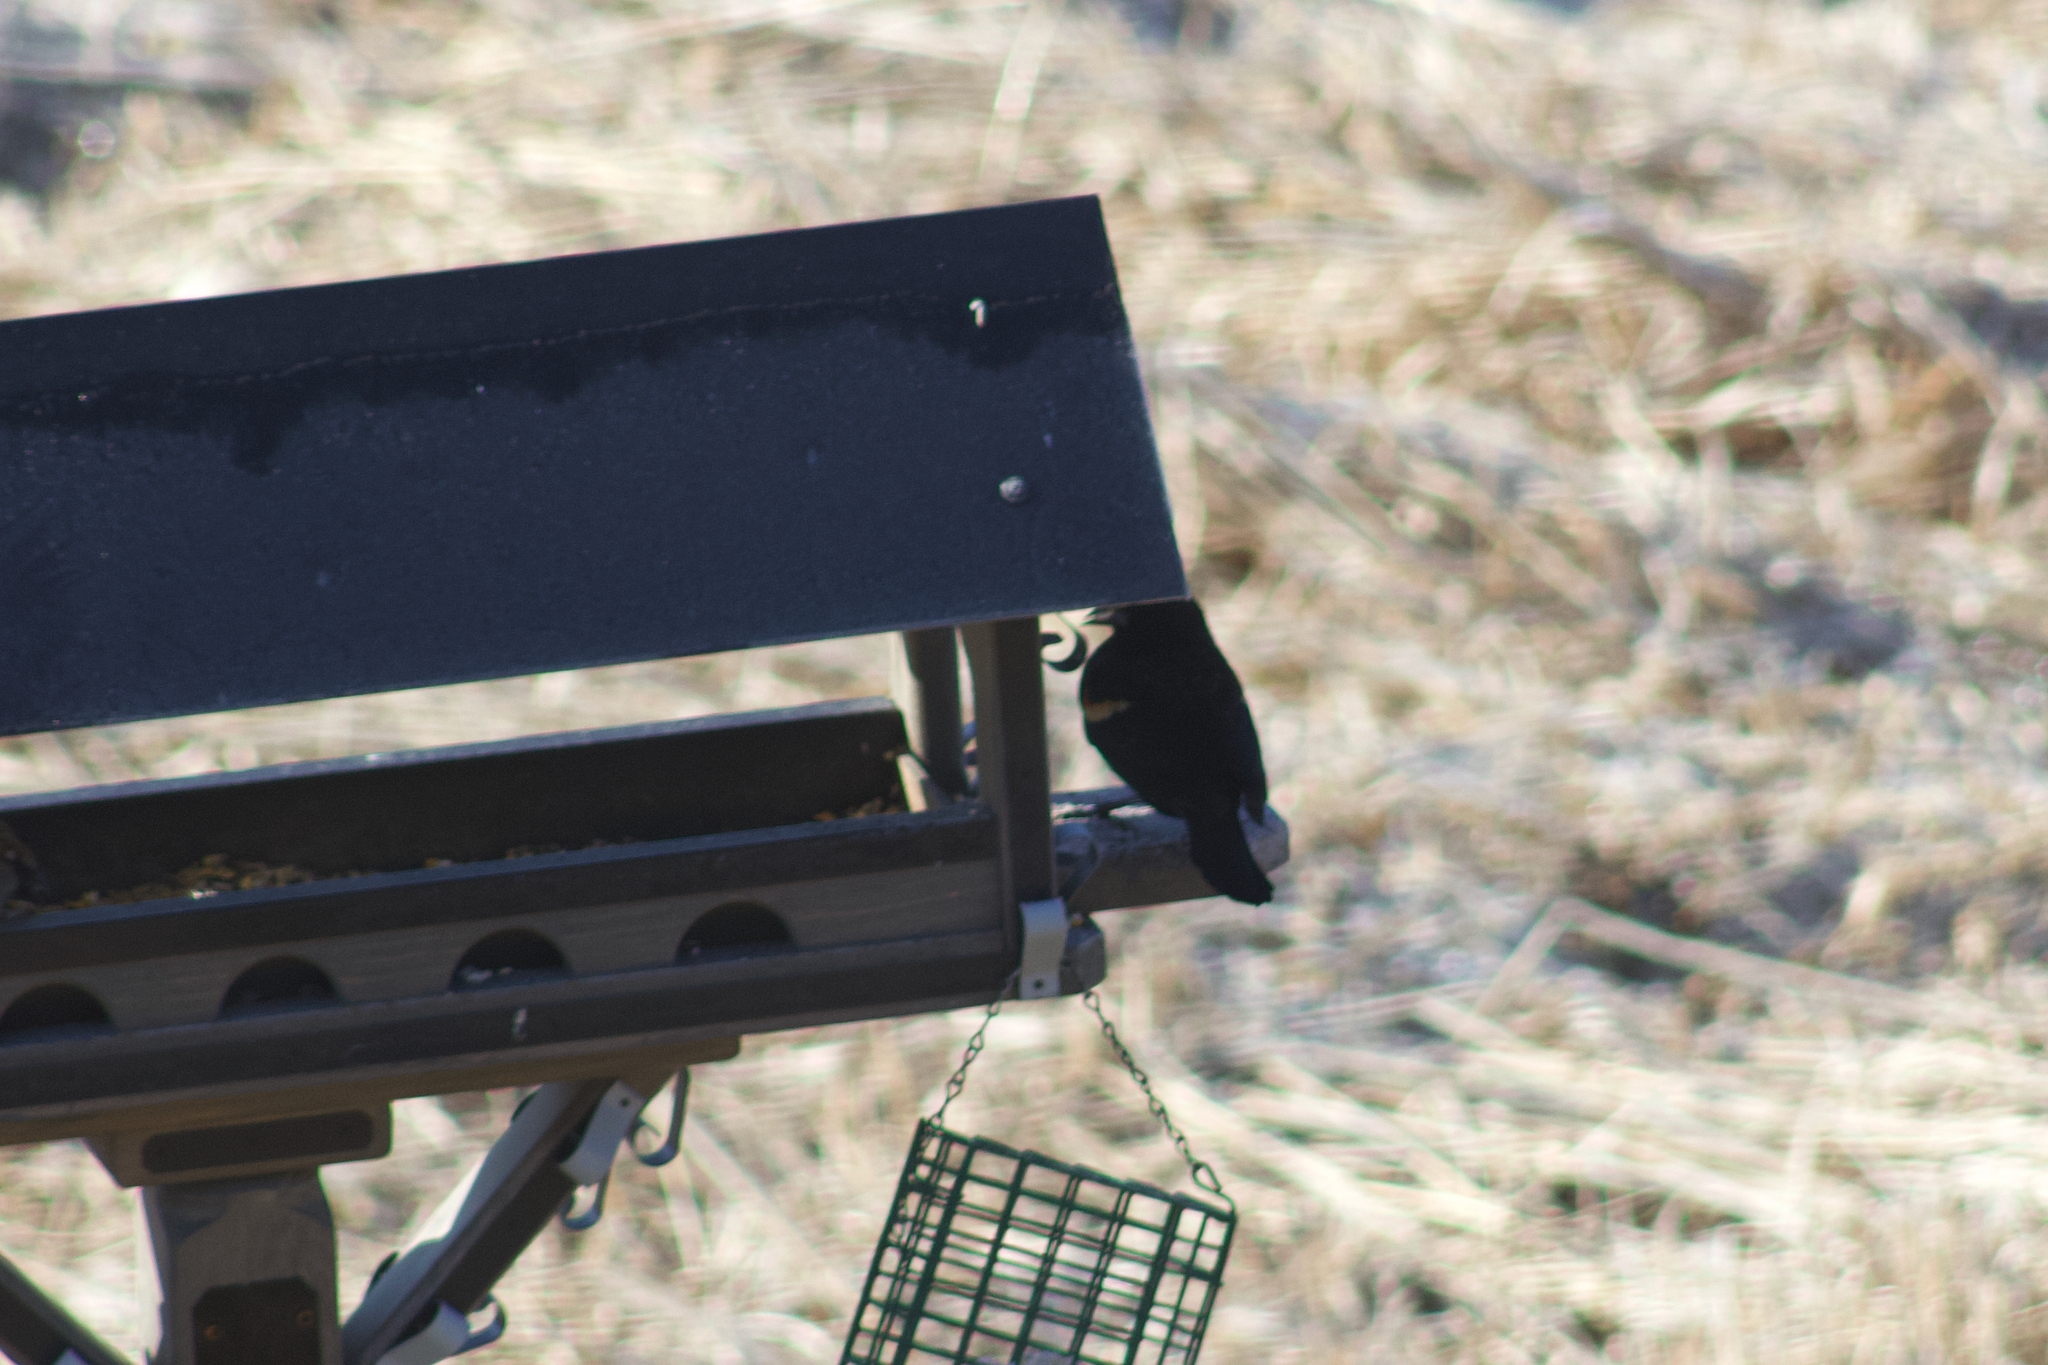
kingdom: Animalia
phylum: Chordata
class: Aves
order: Passeriformes
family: Icteridae
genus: Agelaius
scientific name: Agelaius phoeniceus
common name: Red-winged blackbird
